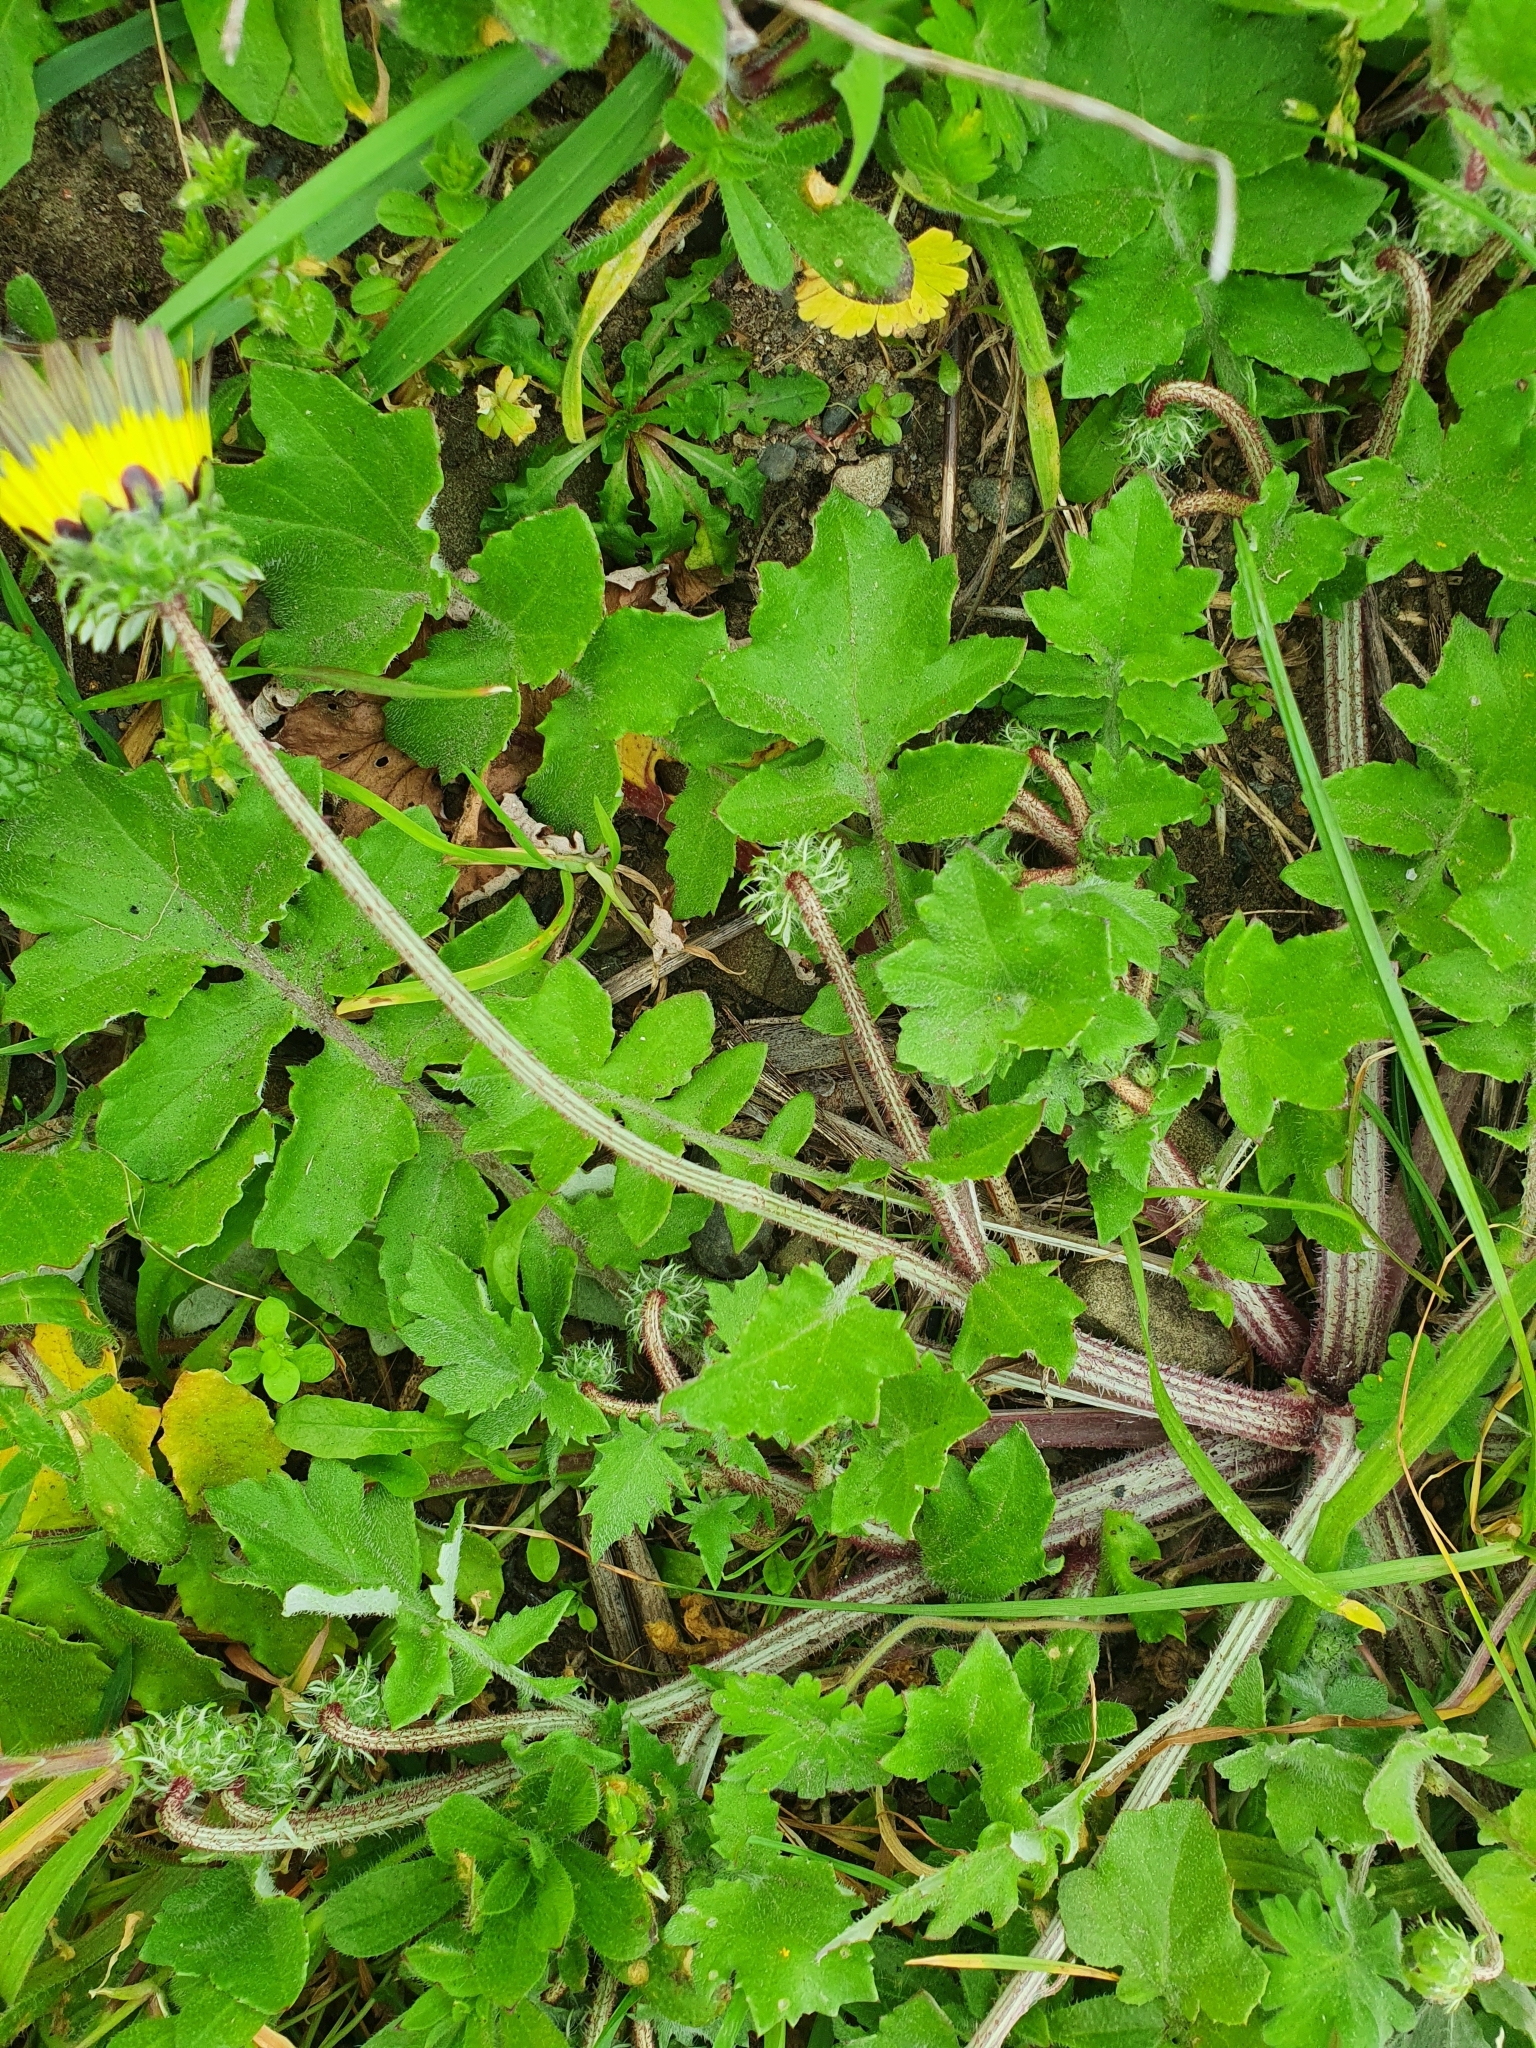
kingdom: Plantae
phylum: Tracheophyta
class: Magnoliopsida
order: Asterales
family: Asteraceae
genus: Arctotheca
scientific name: Arctotheca calendula
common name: Capeweed
